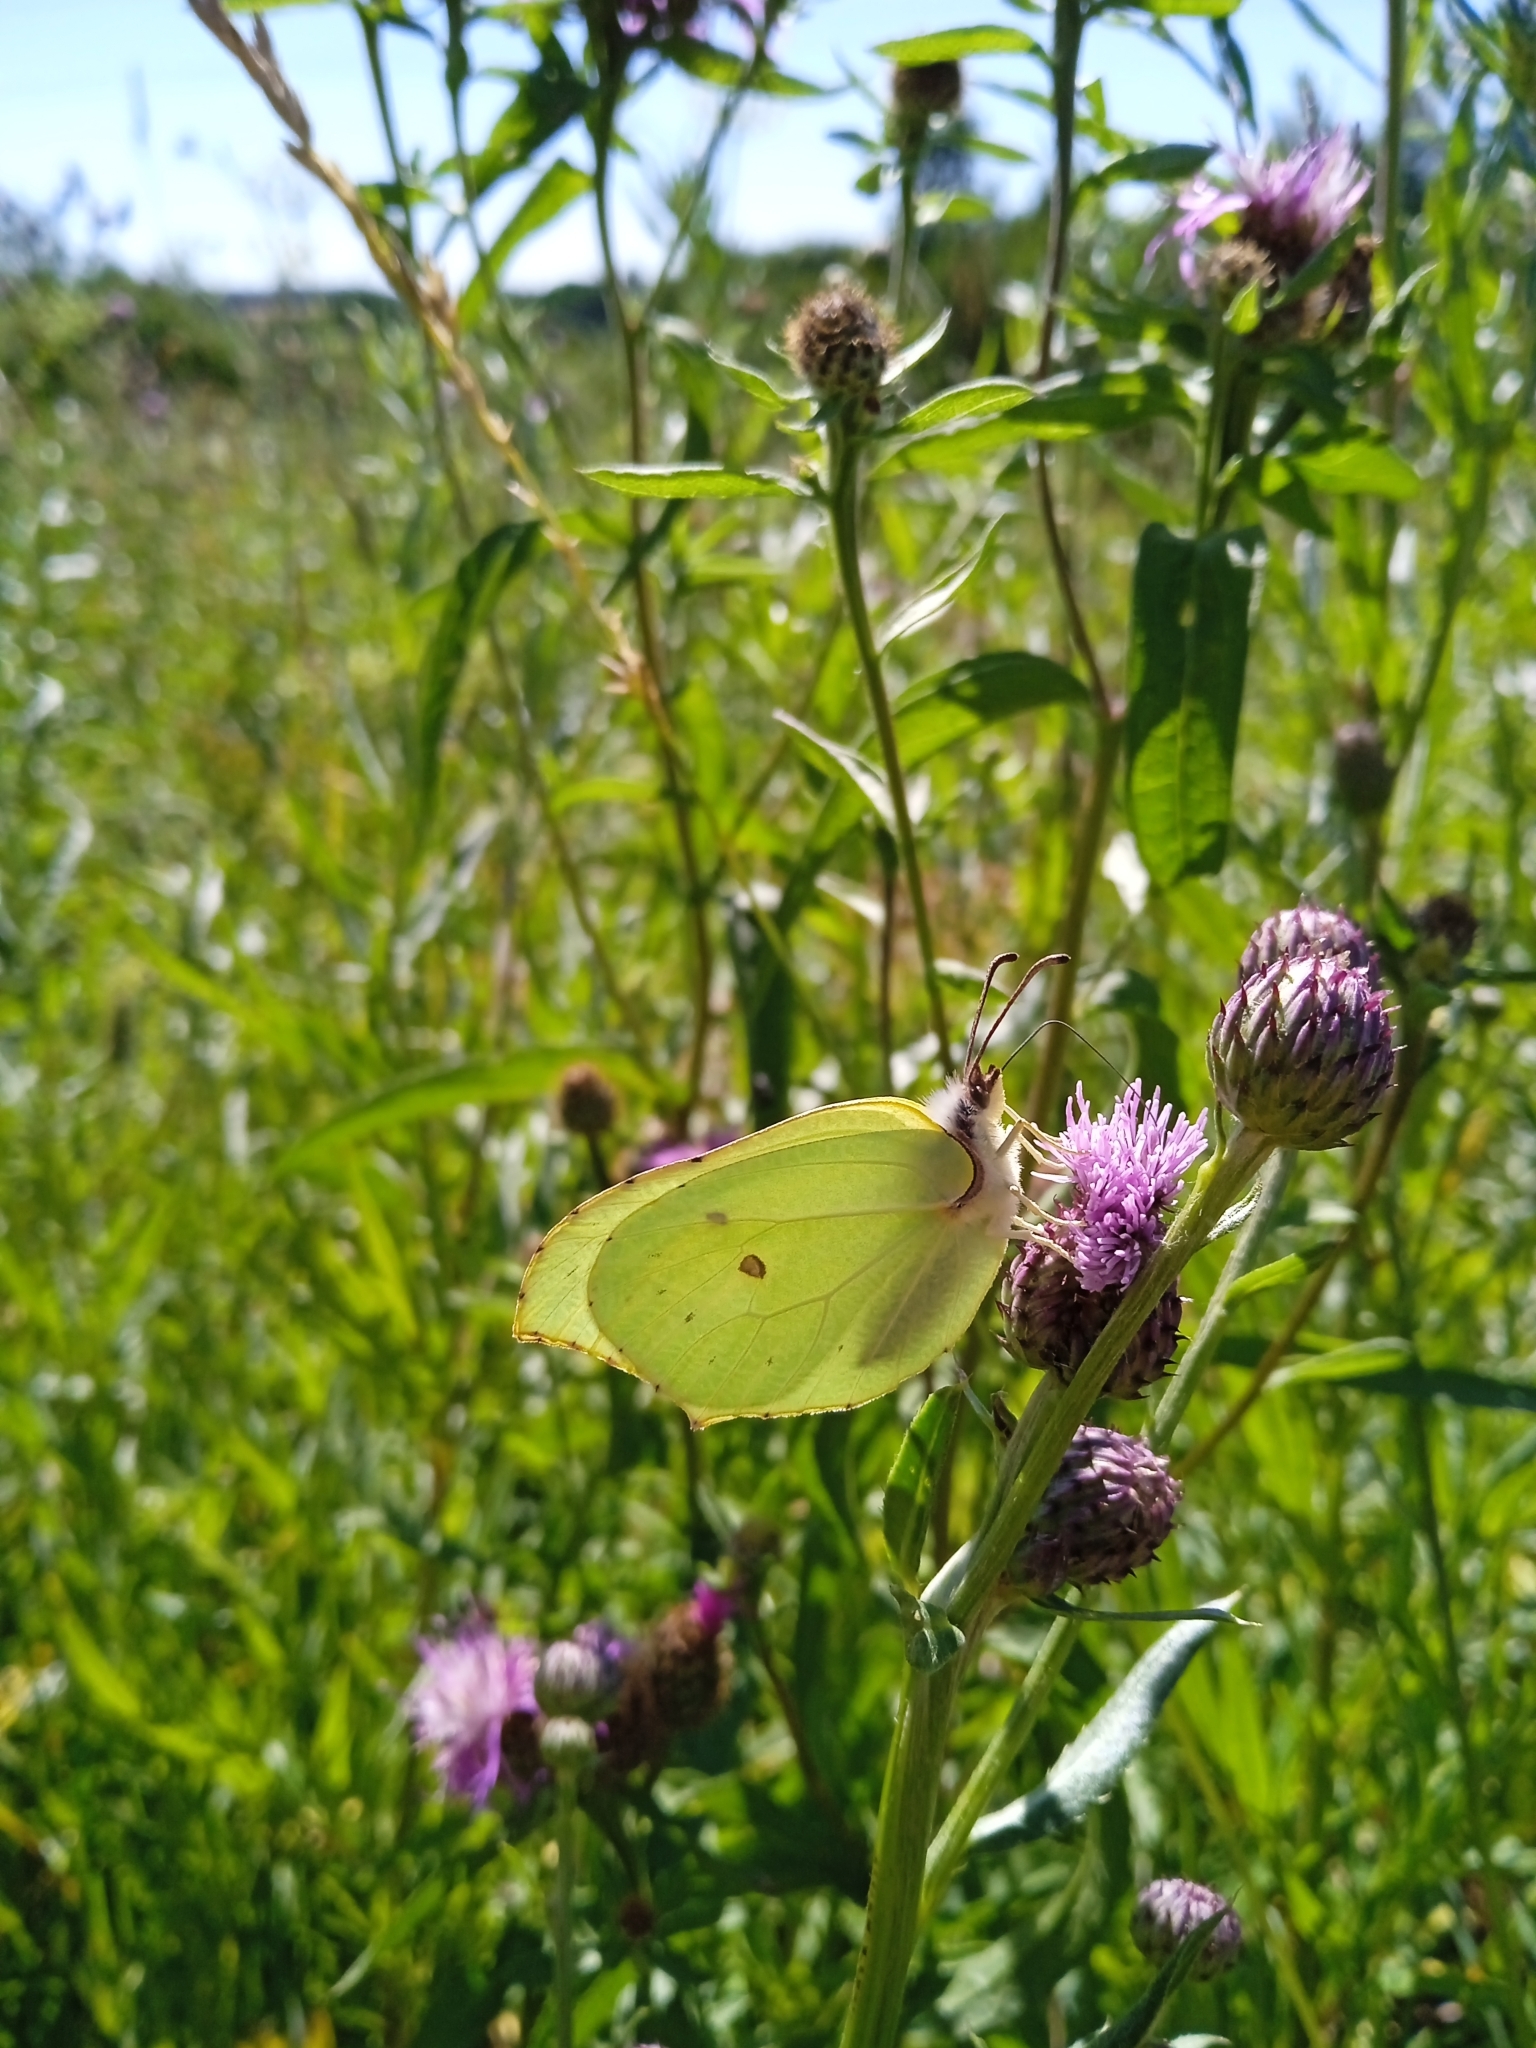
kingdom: Animalia
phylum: Arthropoda
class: Insecta
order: Lepidoptera
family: Pieridae
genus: Gonepteryx
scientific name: Gonepteryx rhamni
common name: Brimstone
